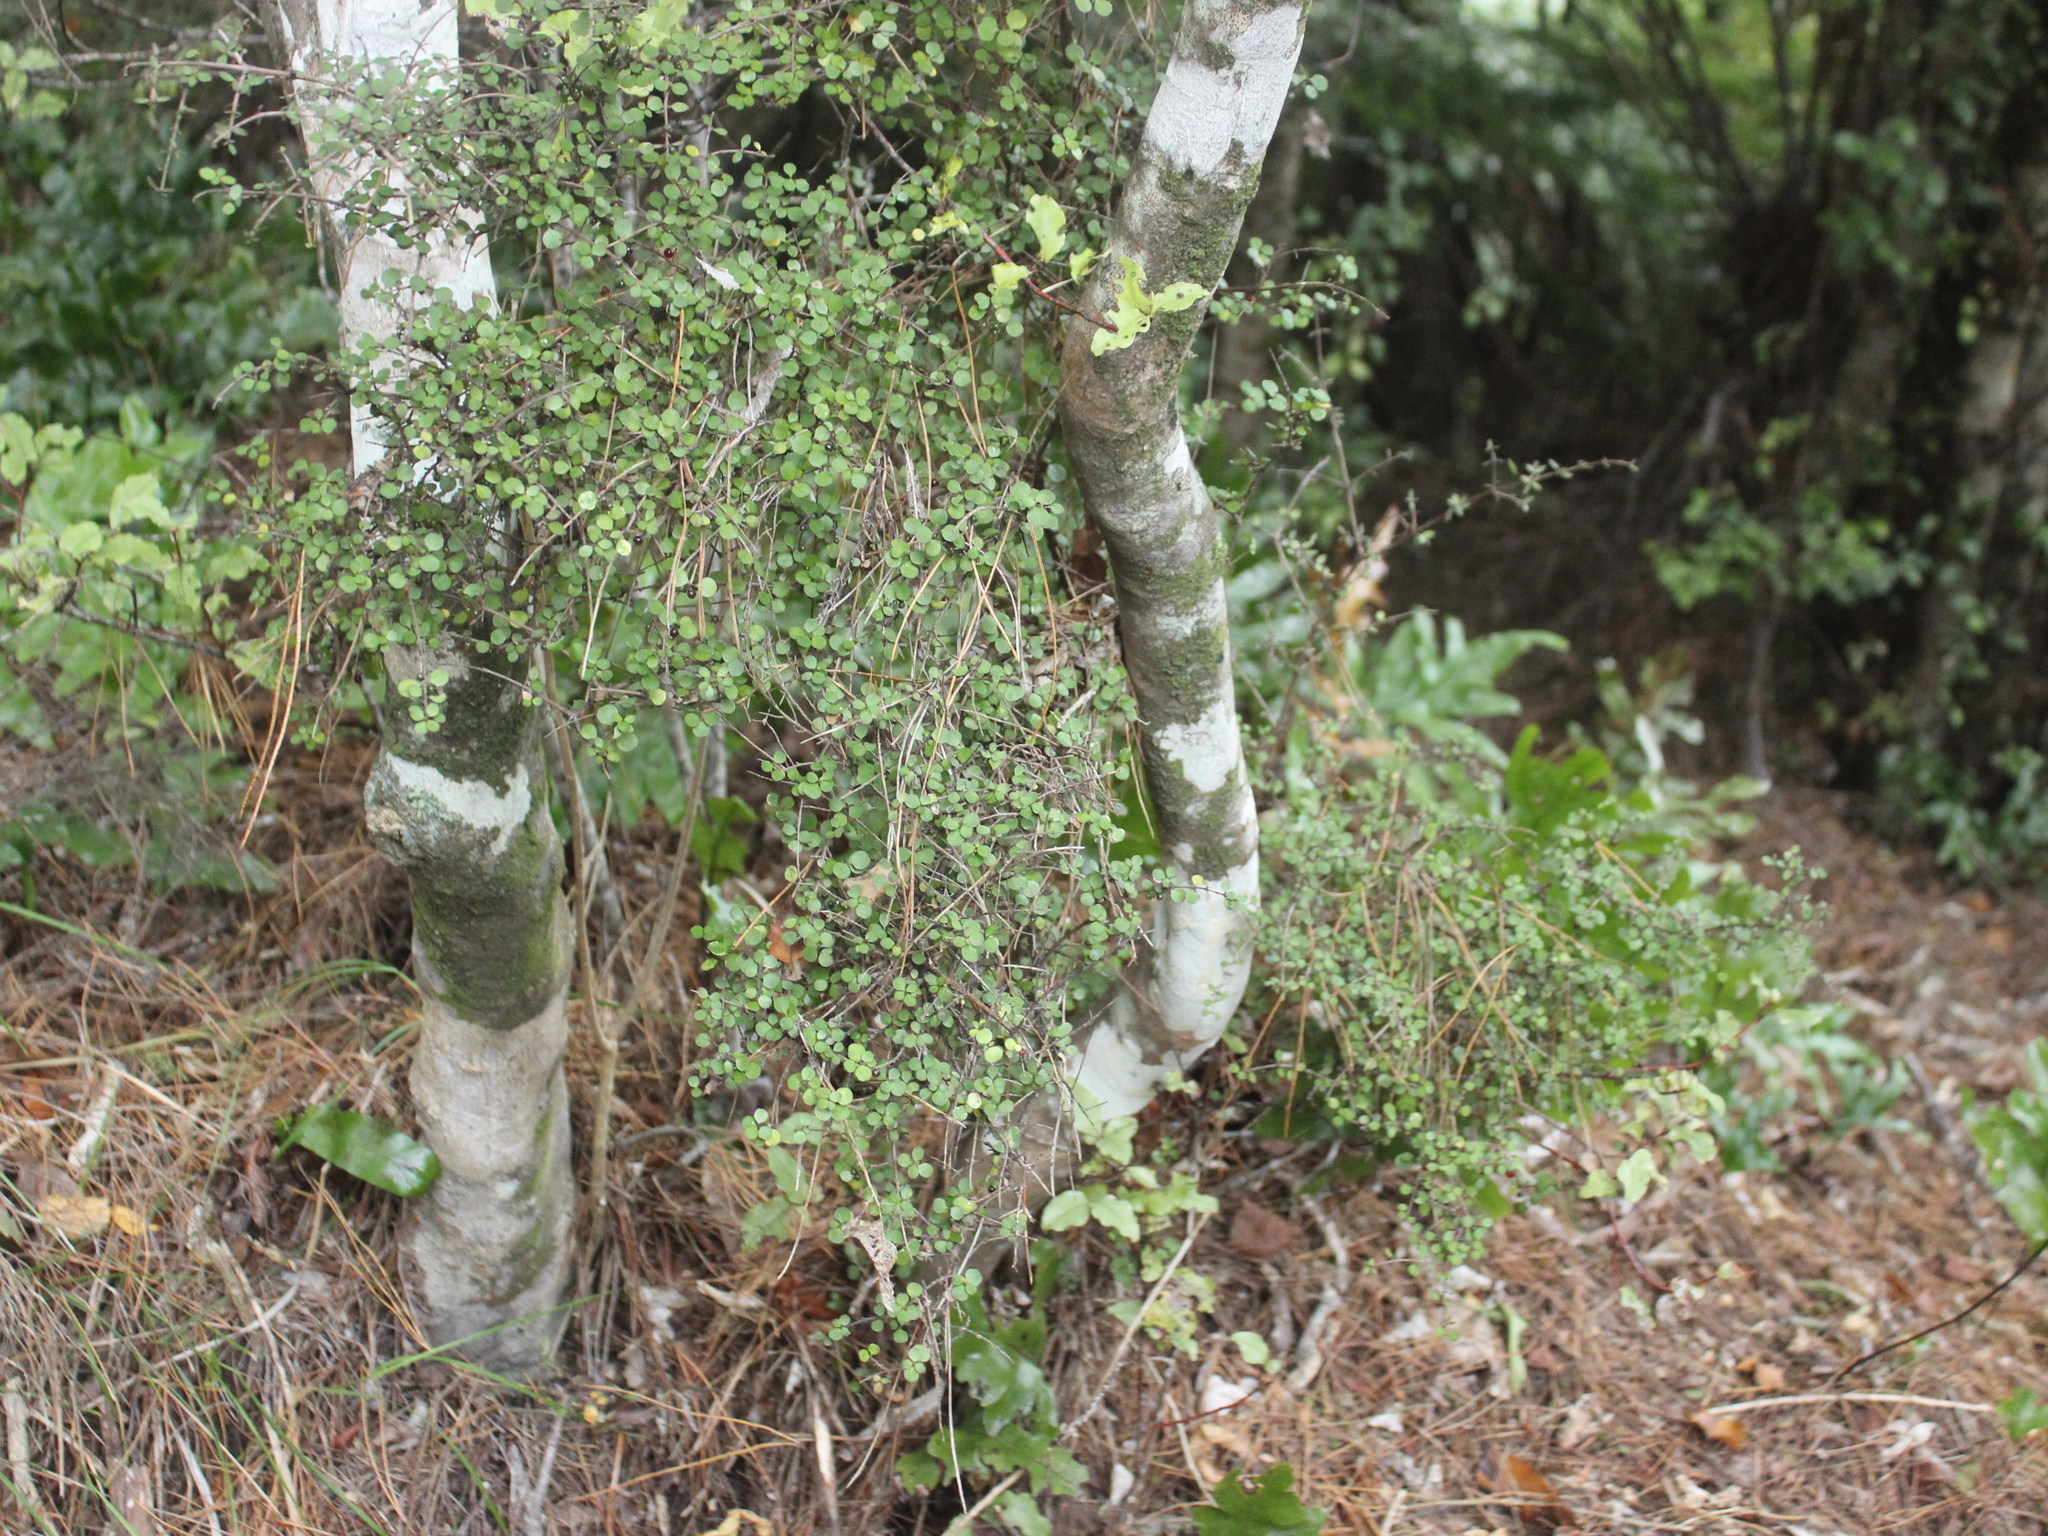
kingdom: Plantae
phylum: Tracheophyta
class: Magnoliopsida
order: Gentianales
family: Rubiaceae
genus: Coprosma
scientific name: Coprosma rhamnoides
